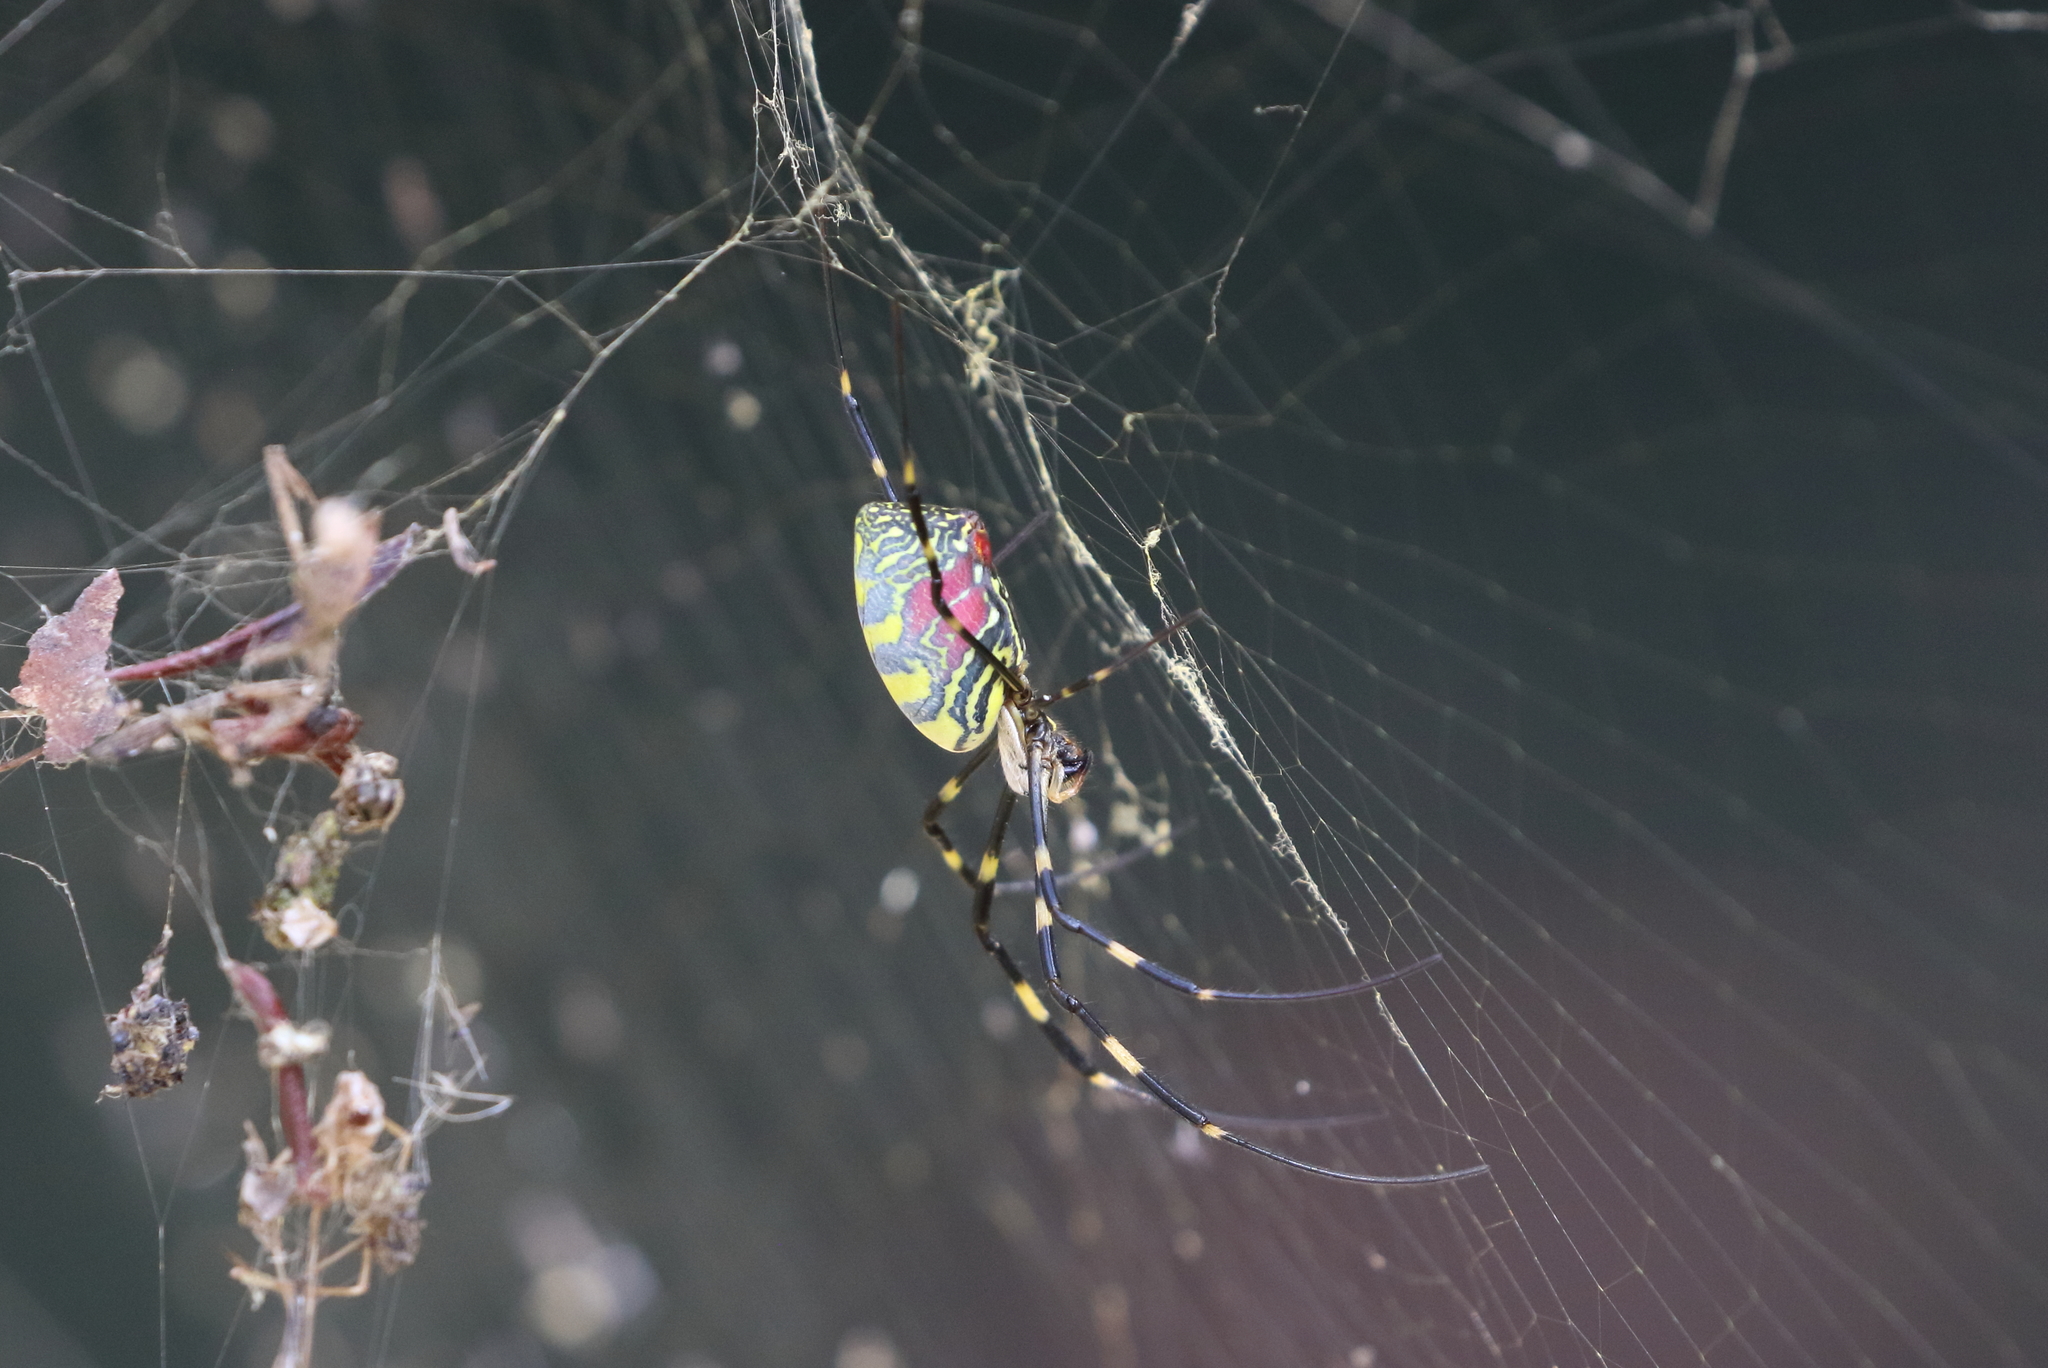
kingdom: Animalia
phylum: Arthropoda
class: Arachnida
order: Araneae
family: Araneidae
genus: Trichonephila
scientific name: Trichonephila clavata
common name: Jorō spider
